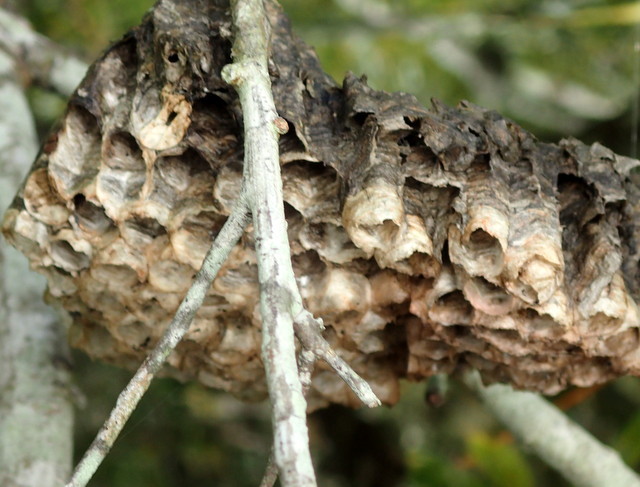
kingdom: Animalia
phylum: Arthropoda
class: Insecta
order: Hymenoptera
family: Pompilidae
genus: Aphanilopterus
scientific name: Aphanilopterus
